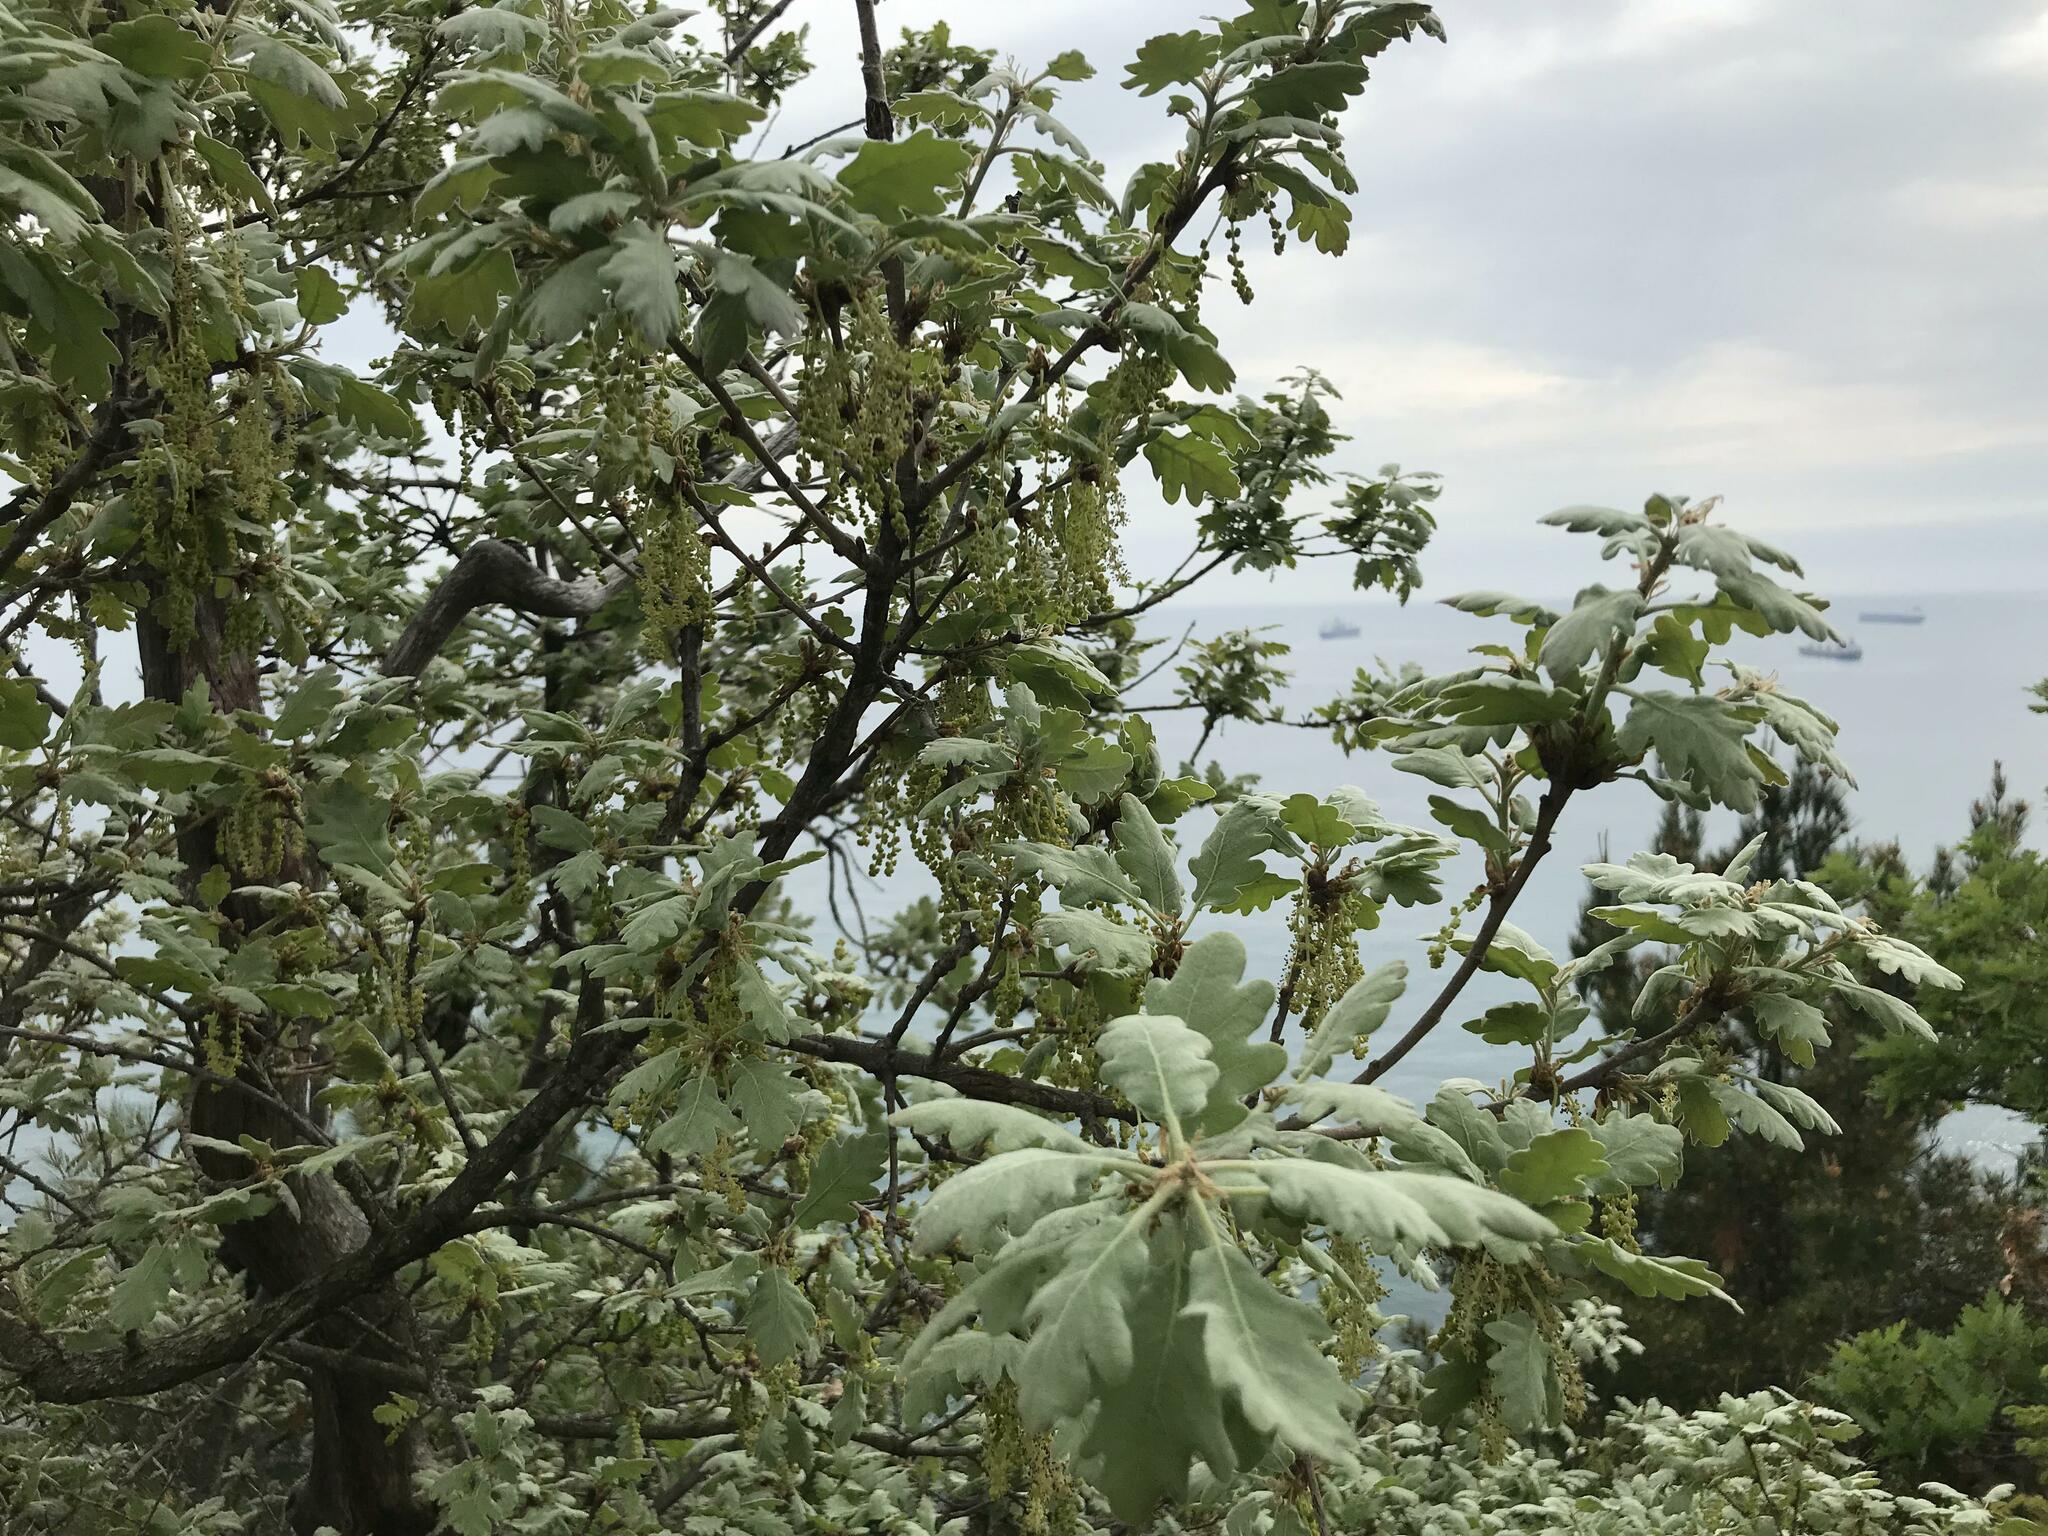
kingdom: Plantae
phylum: Tracheophyta
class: Magnoliopsida
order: Fagales
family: Fagaceae
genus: Quercus
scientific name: Quercus pubescens
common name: Downy oak
